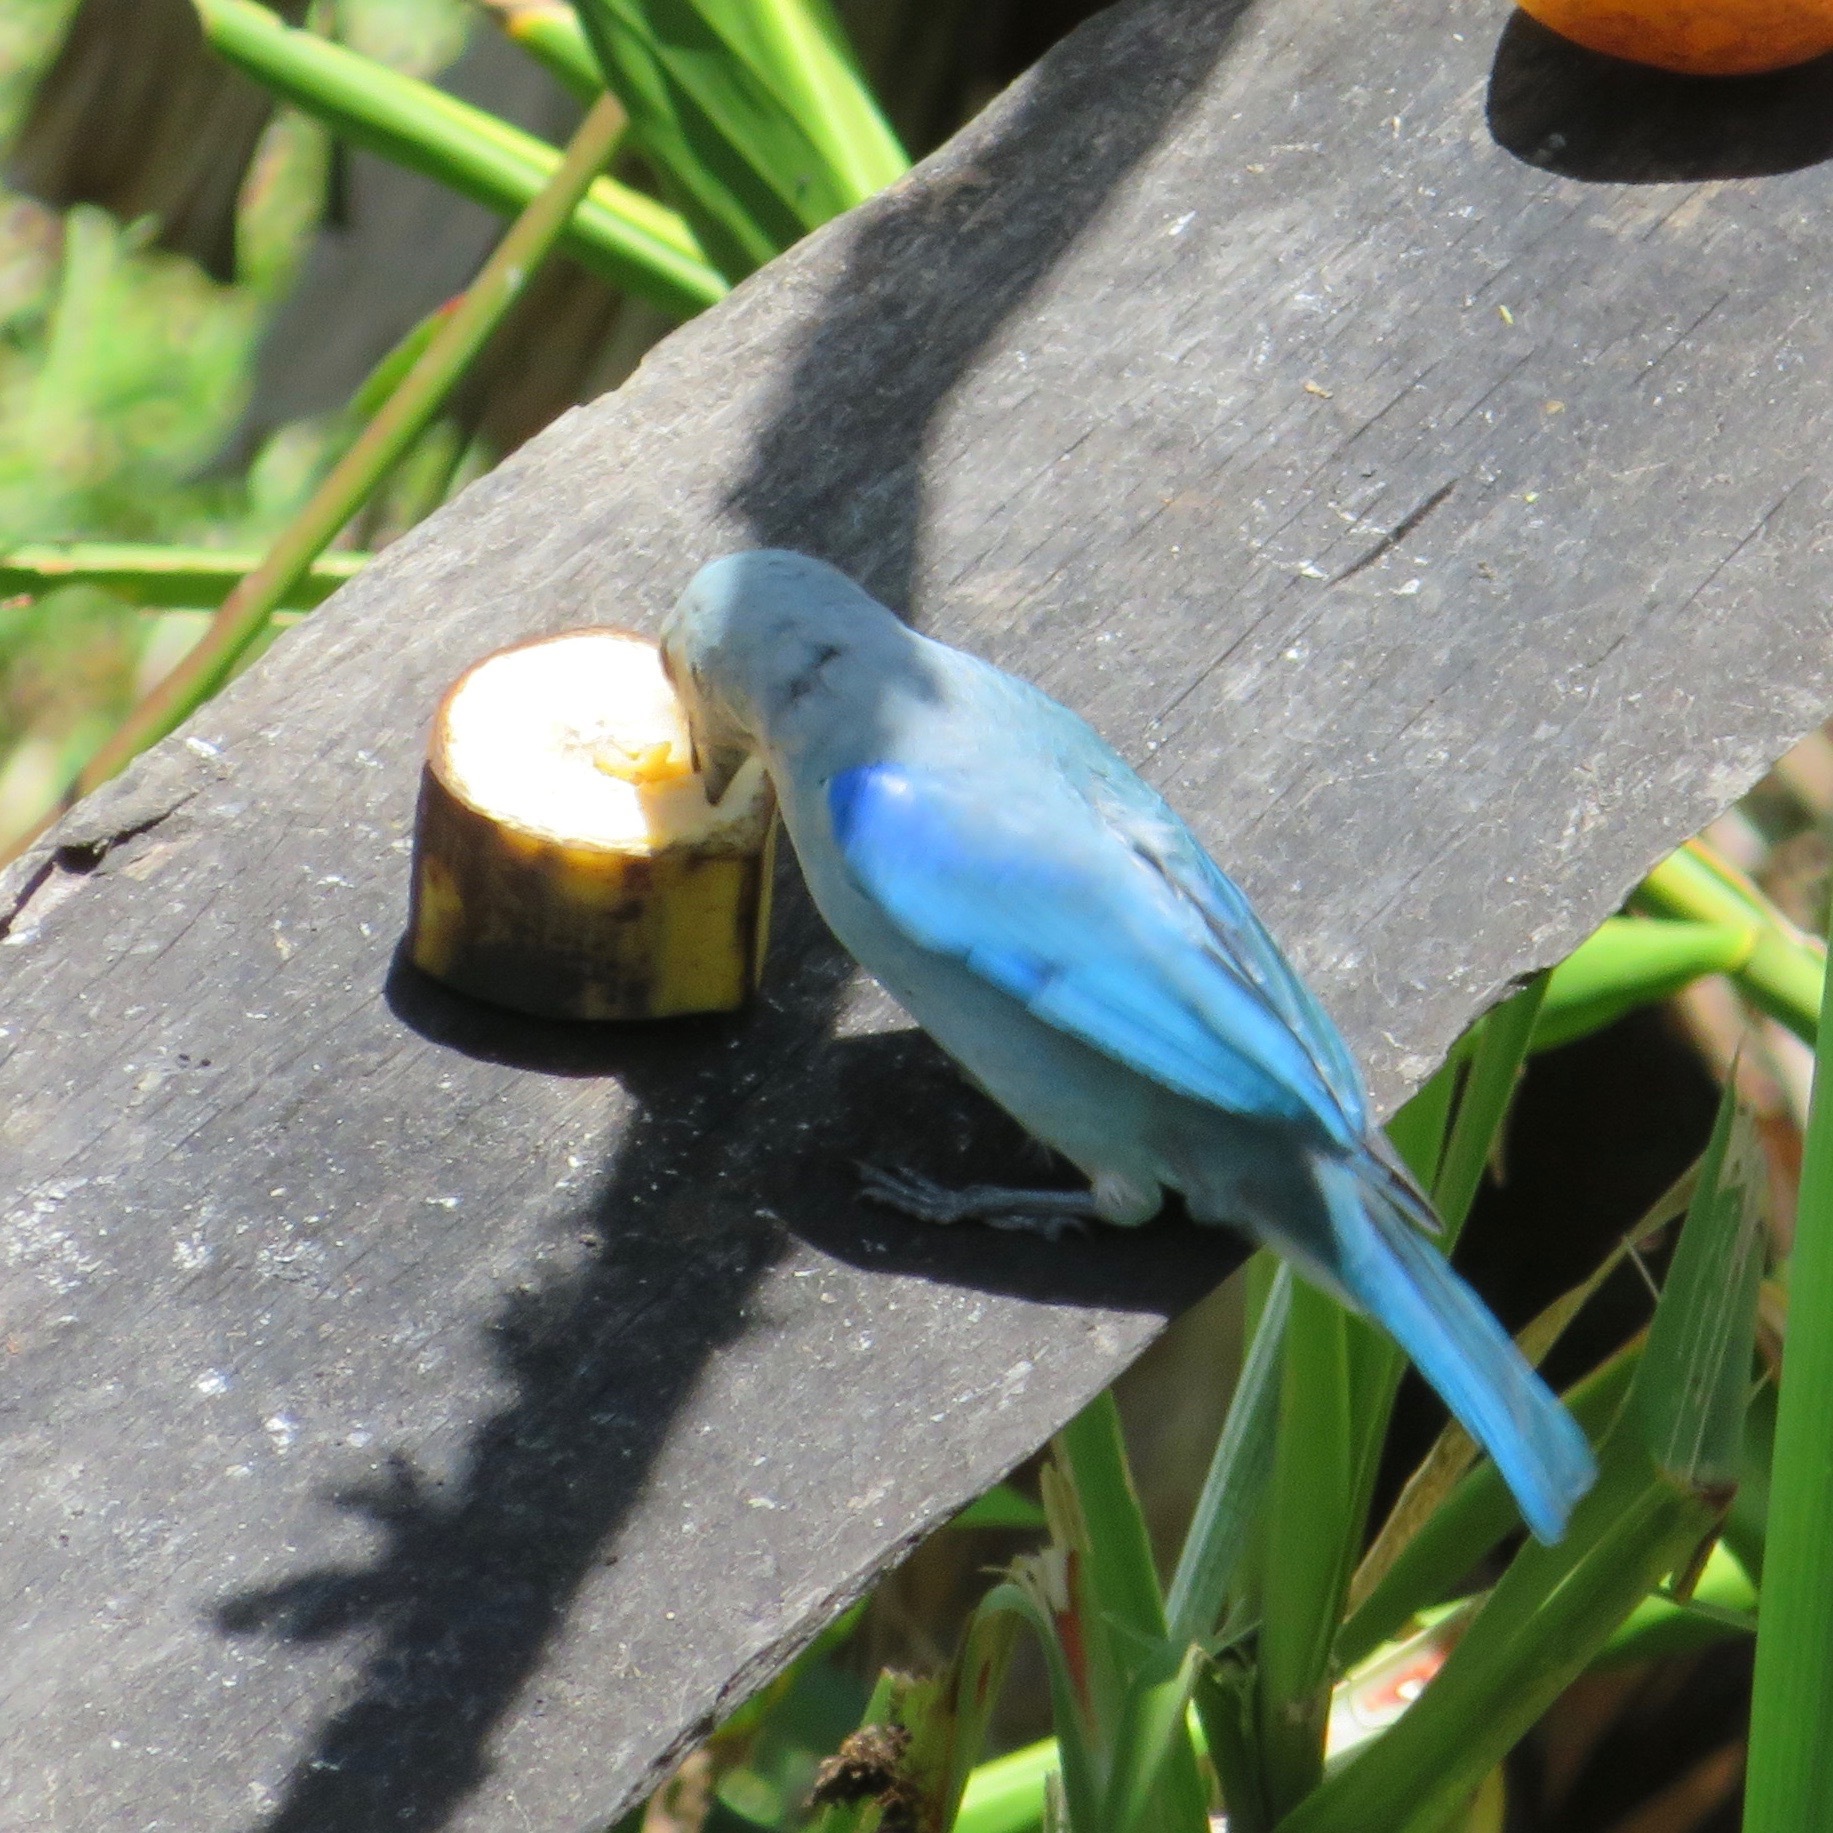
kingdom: Animalia
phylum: Chordata
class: Aves
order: Passeriformes
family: Thraupidae
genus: Thraupis
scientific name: Thraupis episcopus
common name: Blue-grey tanager
